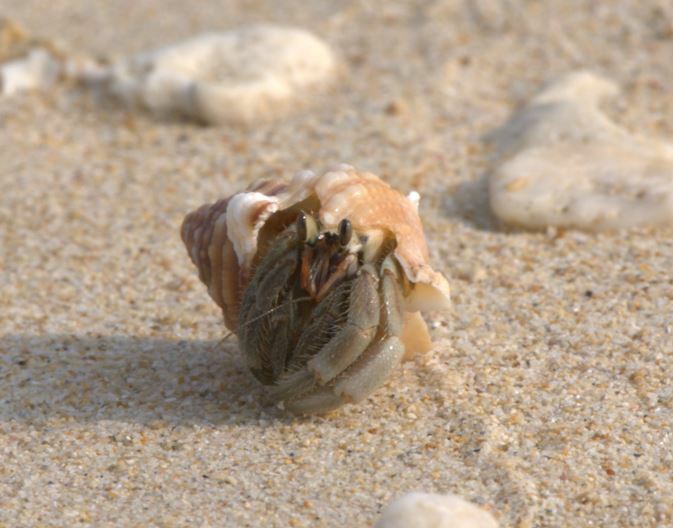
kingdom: Animalia
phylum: Arthropoda
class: Malacostraca
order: Decapoda
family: Coenobitidae
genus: Coenobita
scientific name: Coenobita rugosus
